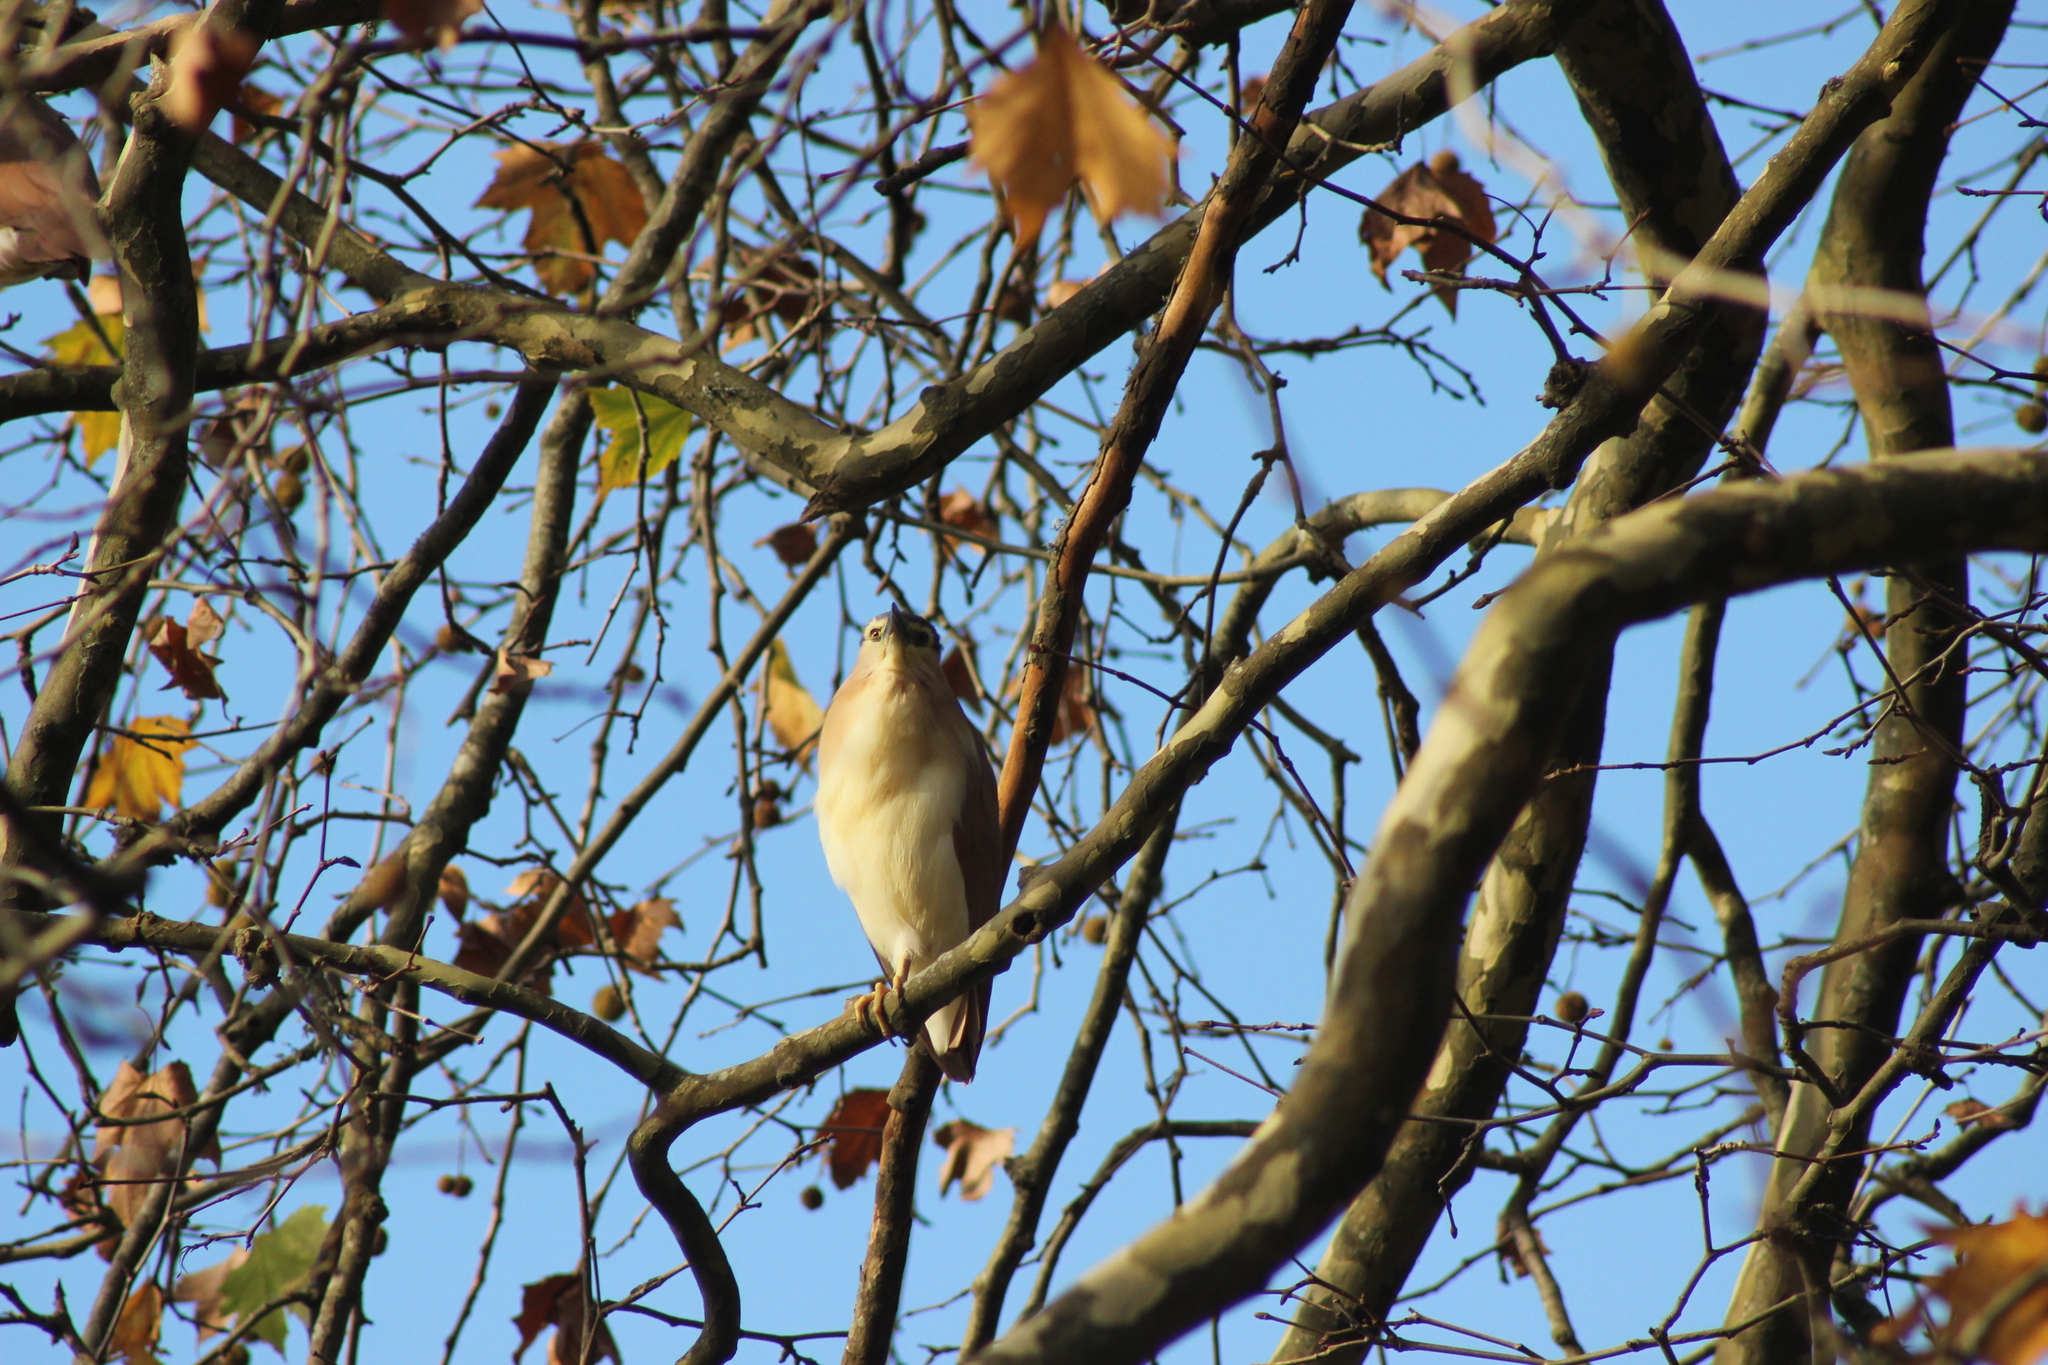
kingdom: Animalia
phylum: Chordata
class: Aves
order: Pelecaniformes
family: Ardeidae
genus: Nycticorax
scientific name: Nycticorax caledonicus
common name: Rufous night-heron
